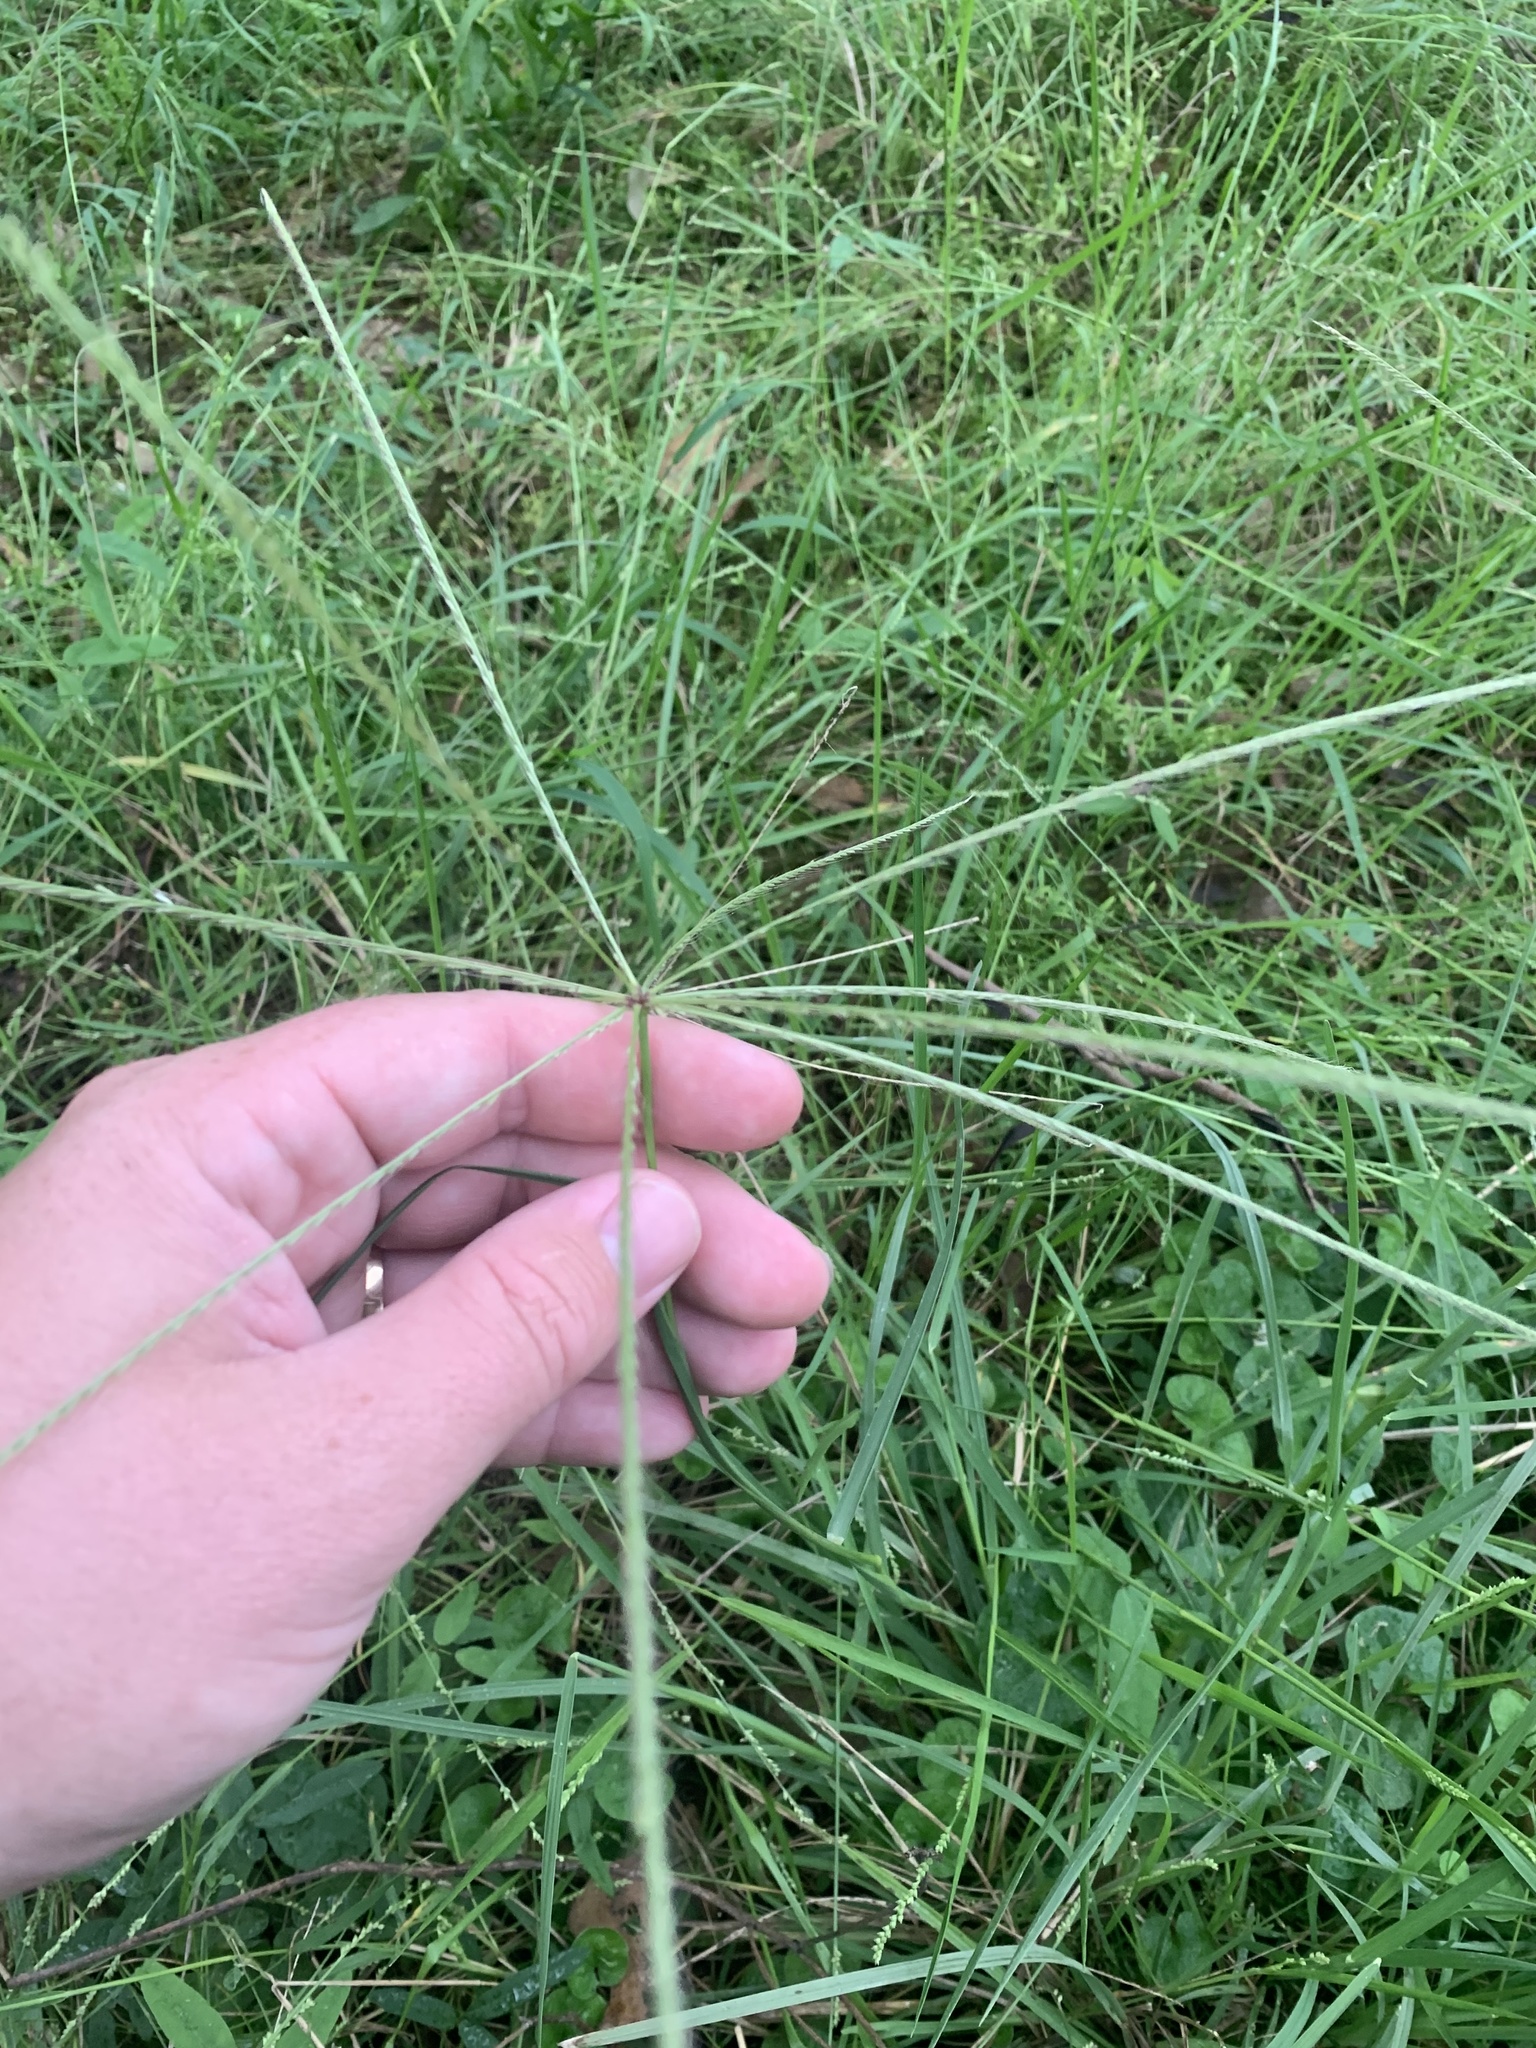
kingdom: Plantae
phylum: Tracheophyta
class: Liliopsida
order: Poales
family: Poaceae
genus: Chloris
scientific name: Chloris truncata
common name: Windmill-grass
